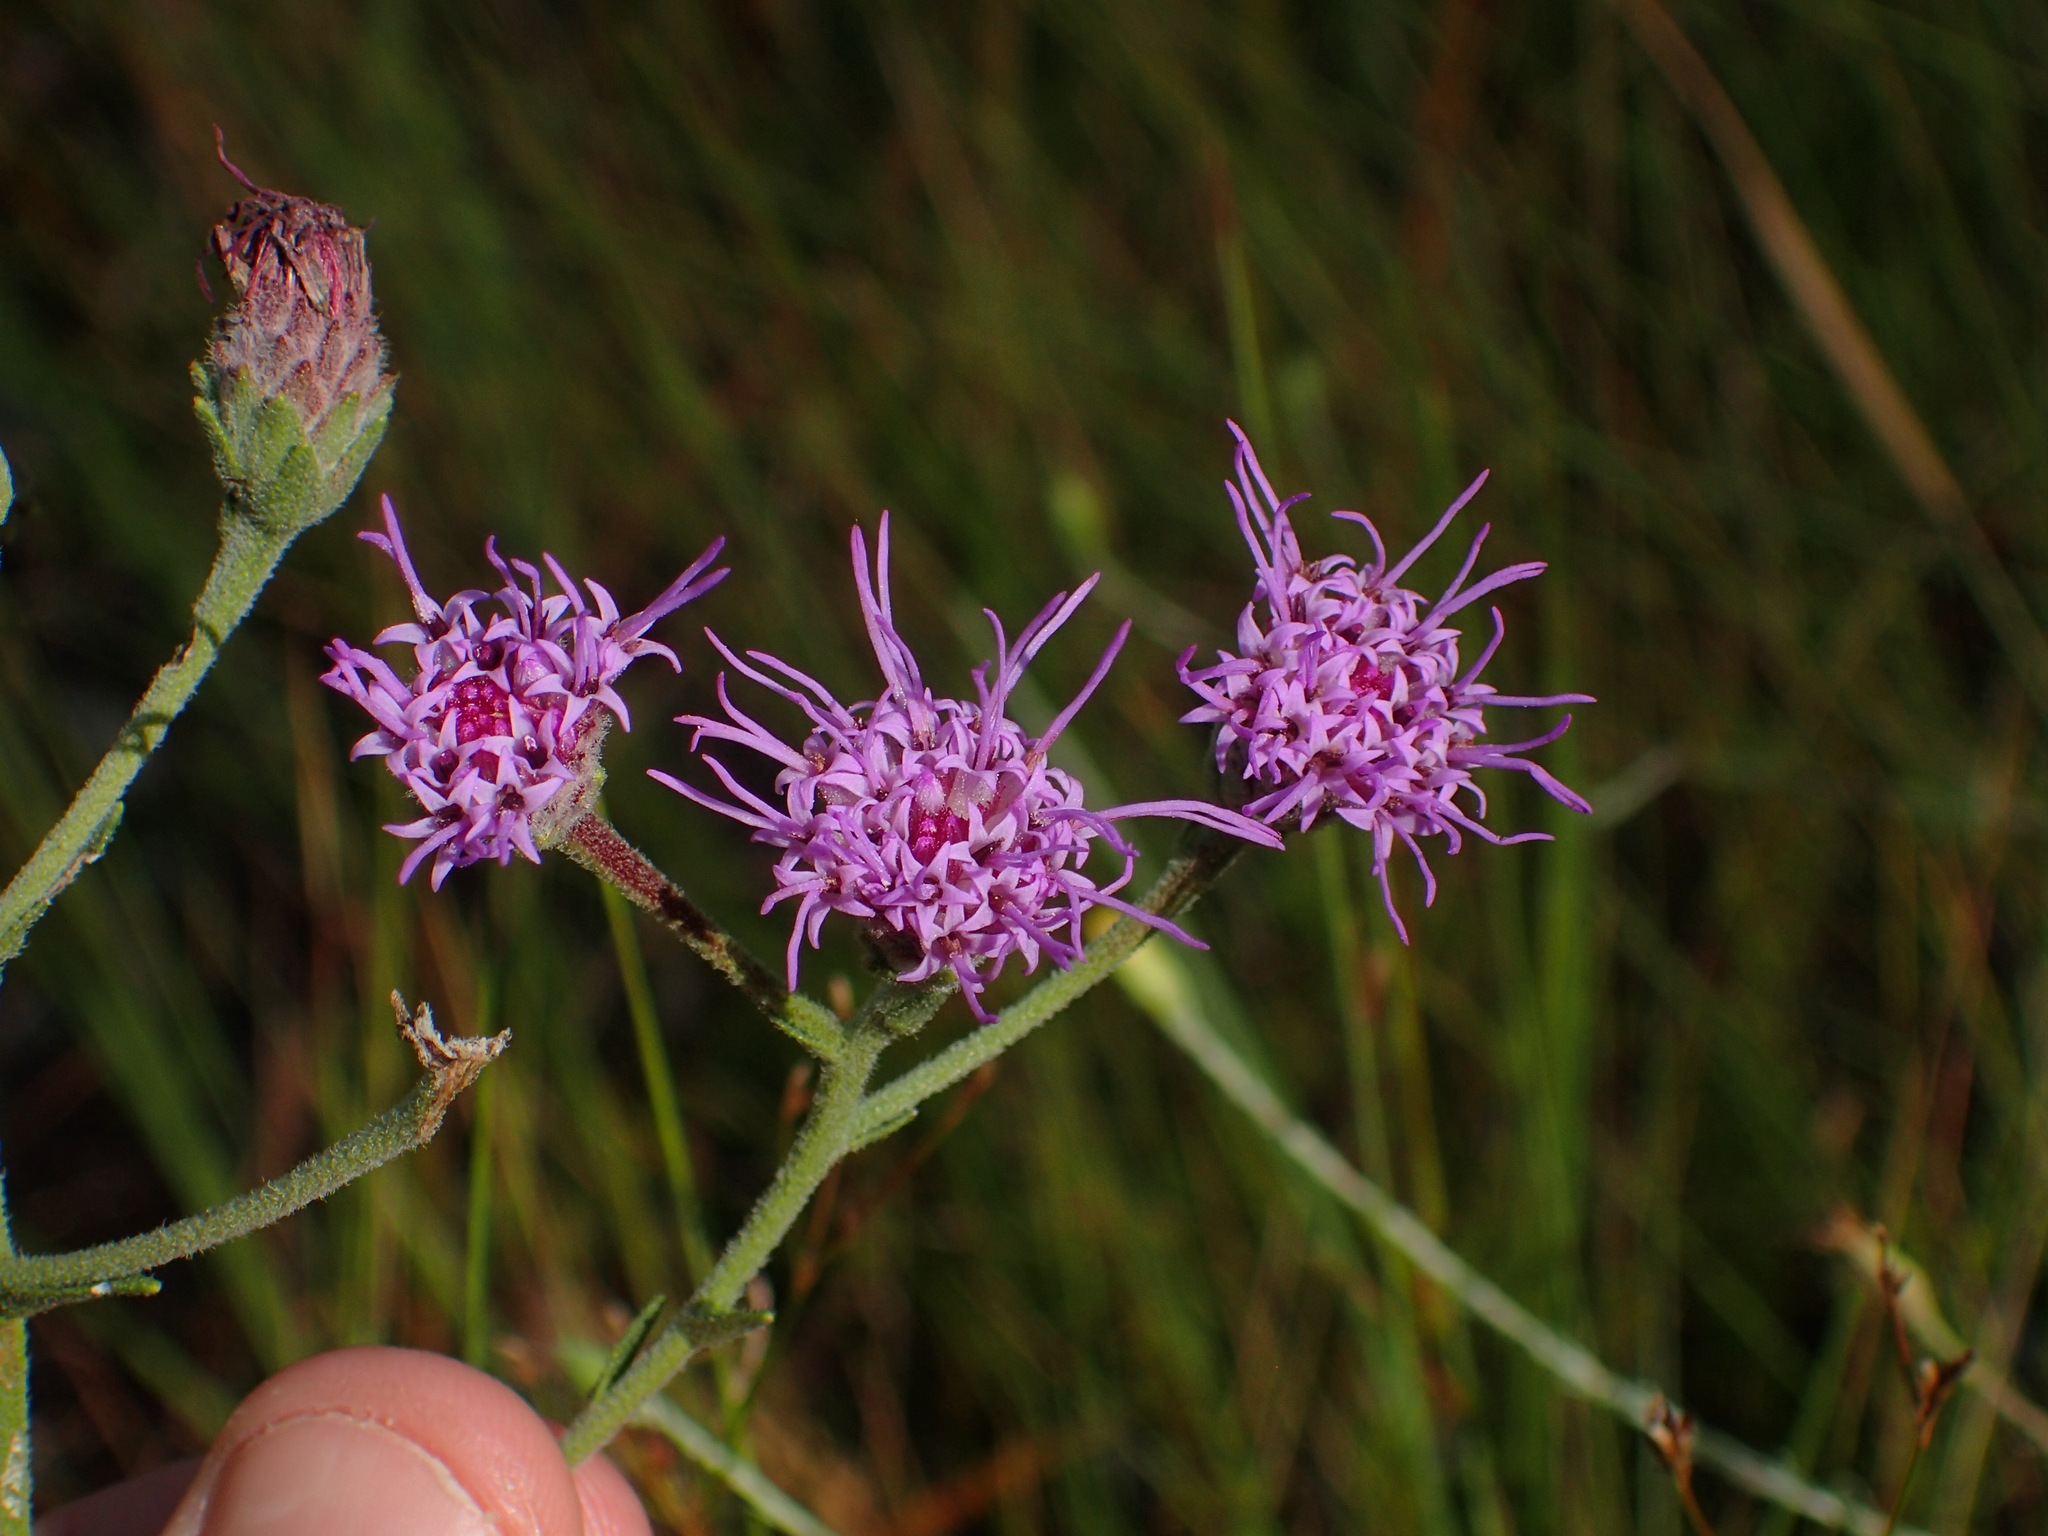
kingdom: Plantae
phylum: Tracheophyta
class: Magnoliopsida
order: Asterales
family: Asteraceae
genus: Carphephorus
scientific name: Carphephorus tomentosus
